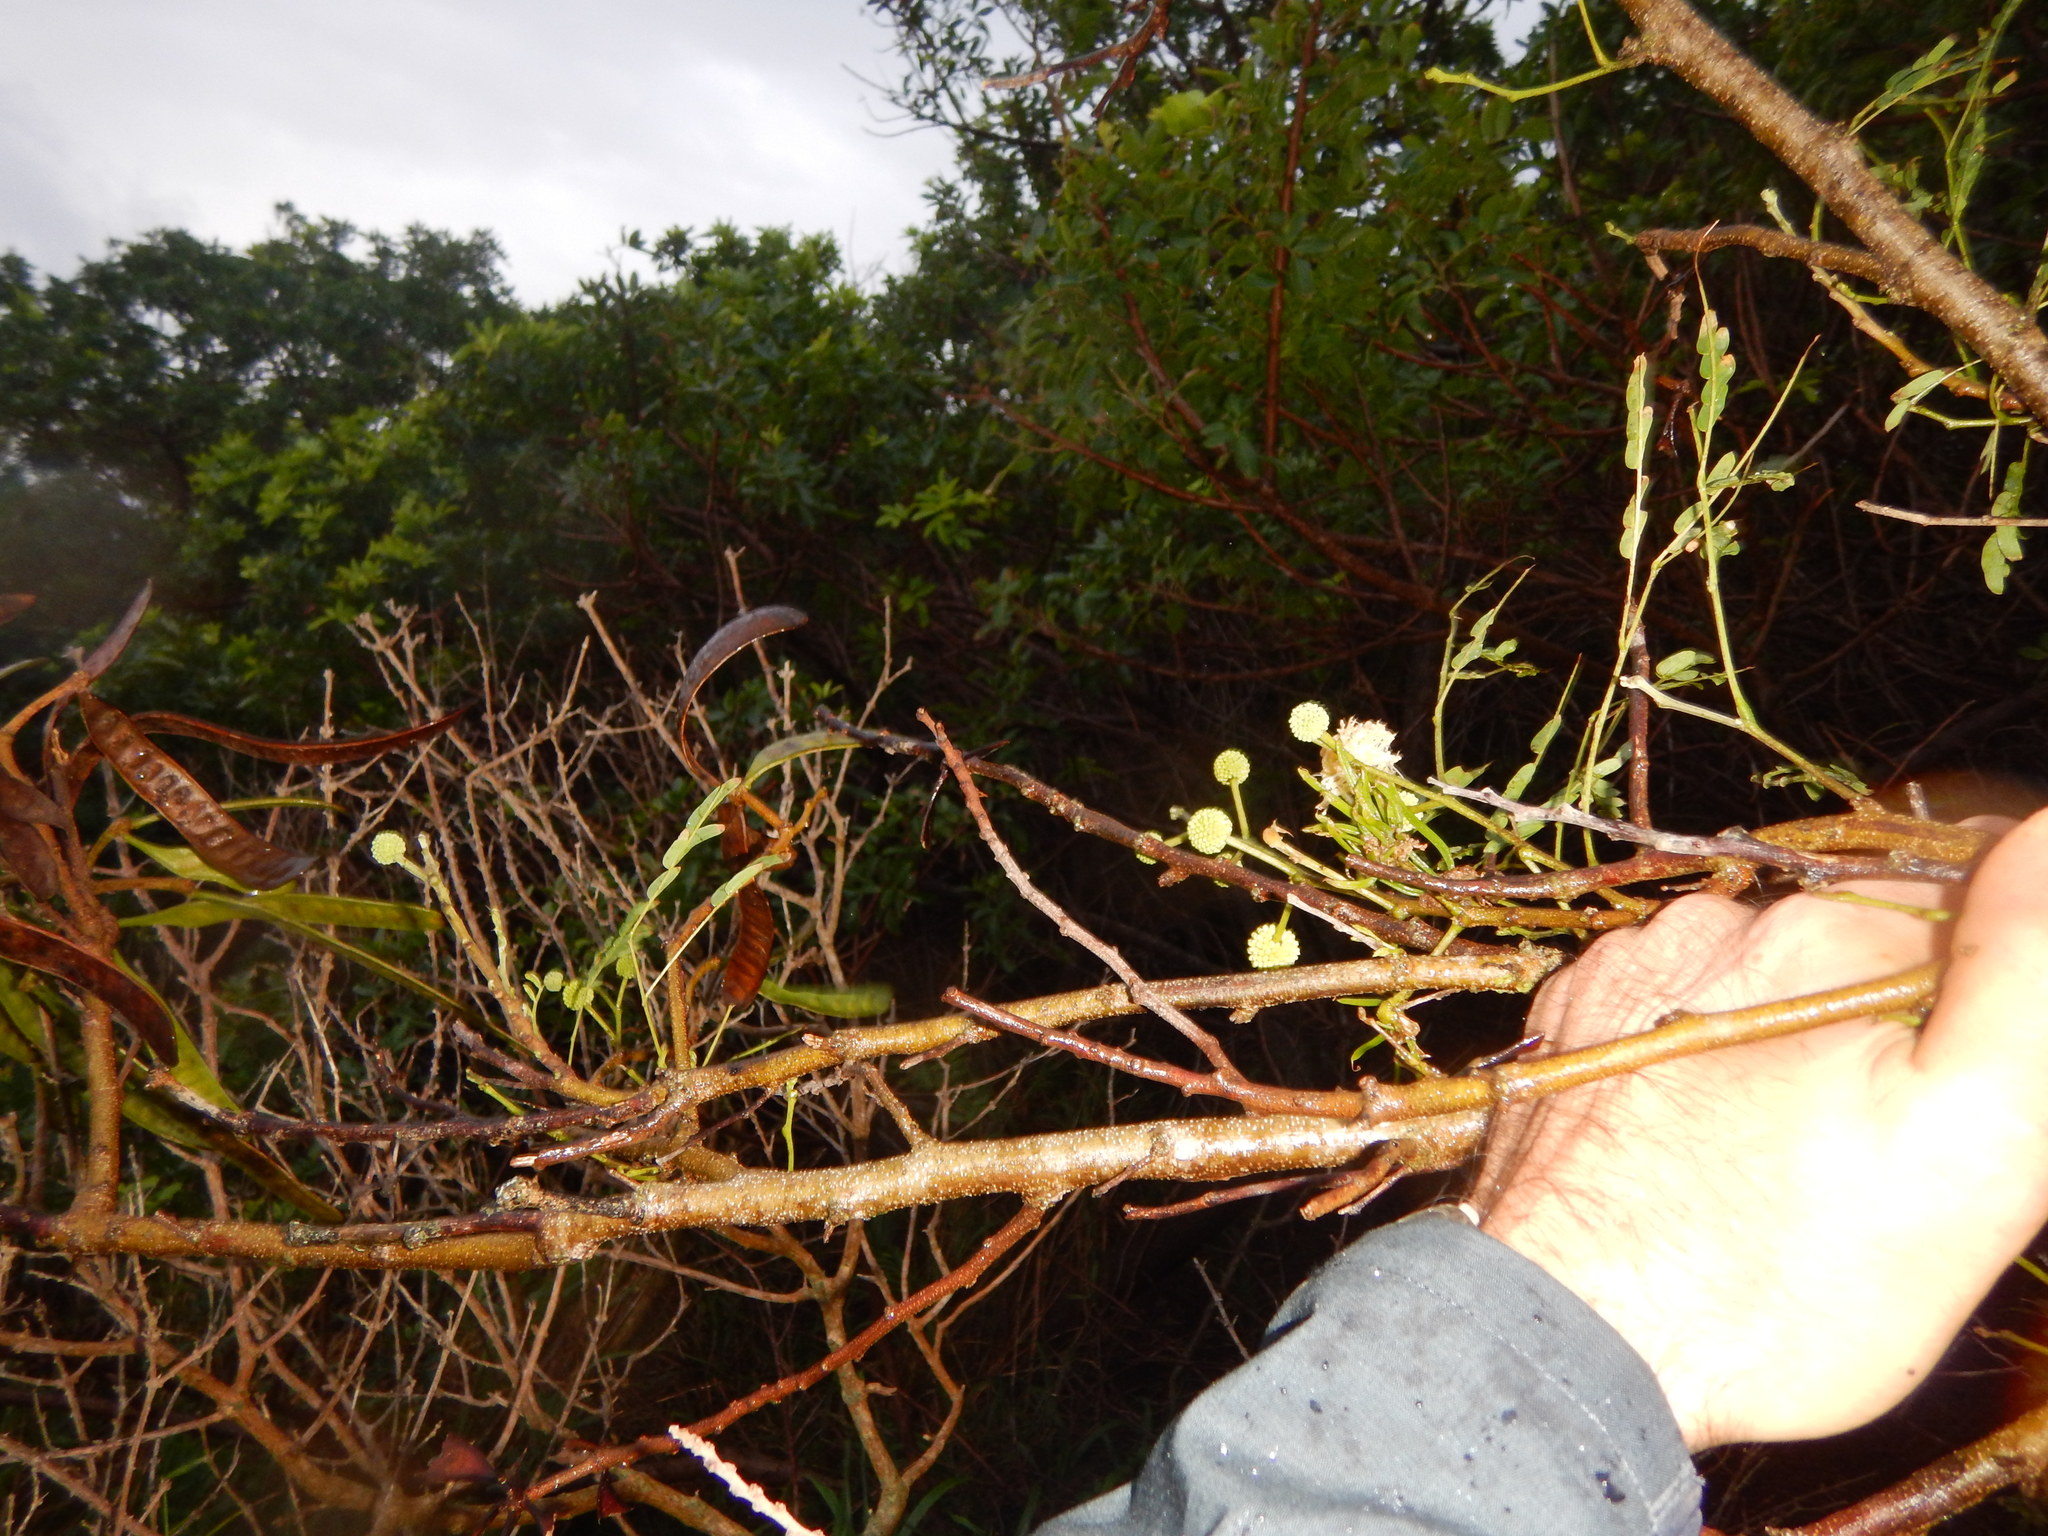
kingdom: Plantae
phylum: Tracheophyta
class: Magnoliopsida
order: Fabales
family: Fabaceae
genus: Leucaena
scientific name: Leucaena leucocephala
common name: White leadtree
